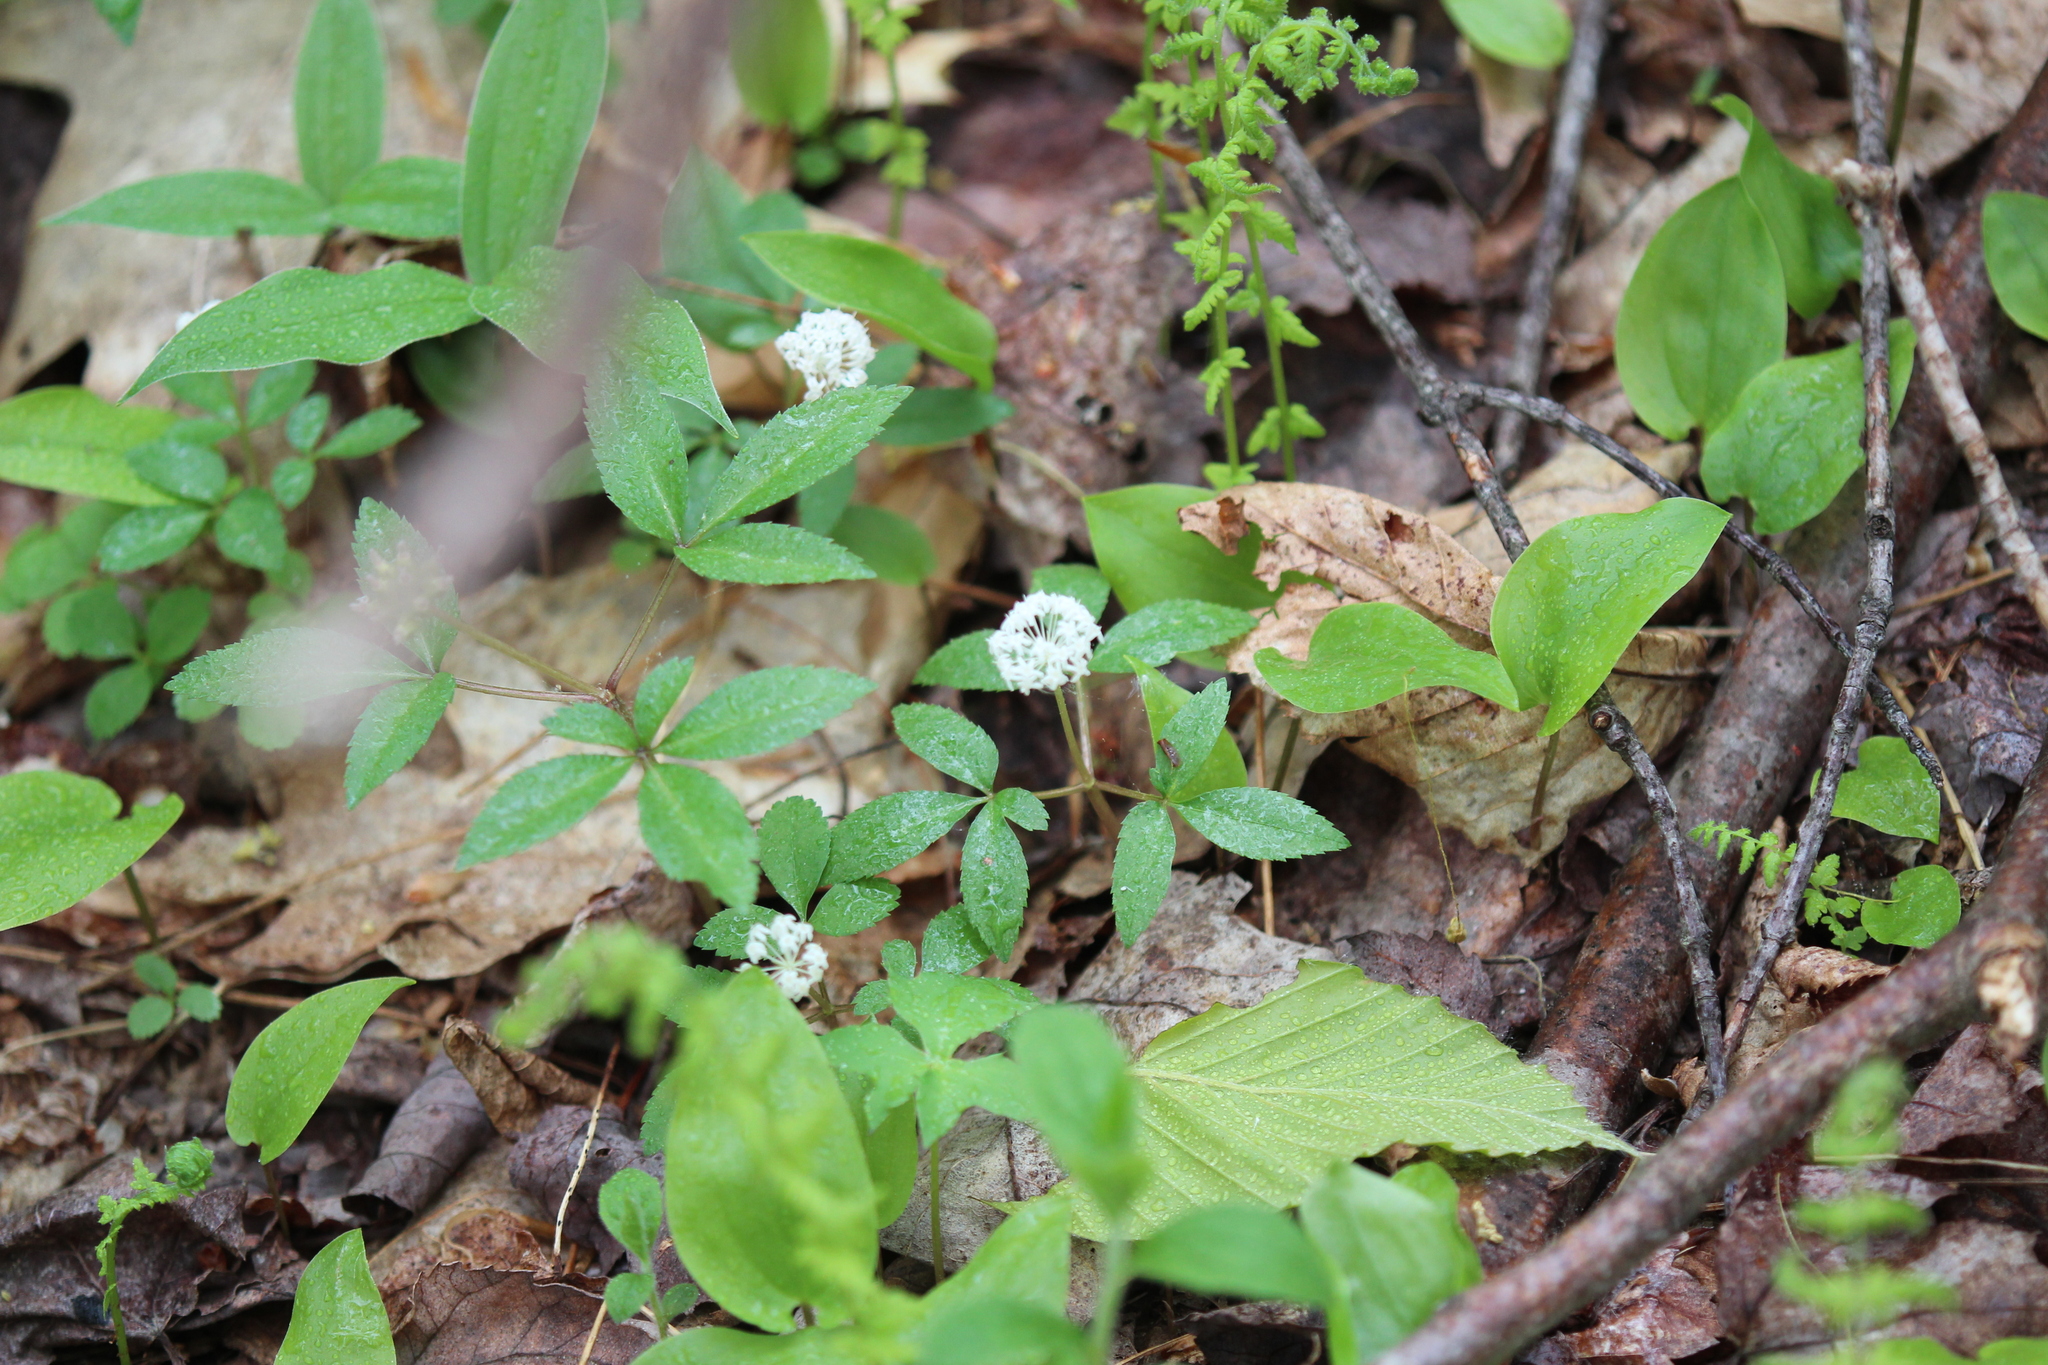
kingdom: Plantae
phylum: Tracheophyta
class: Magnoliopsida
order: Apiales
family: Araliaceae
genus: Panax
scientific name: Panax trifolius
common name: Dwarf ginseng
